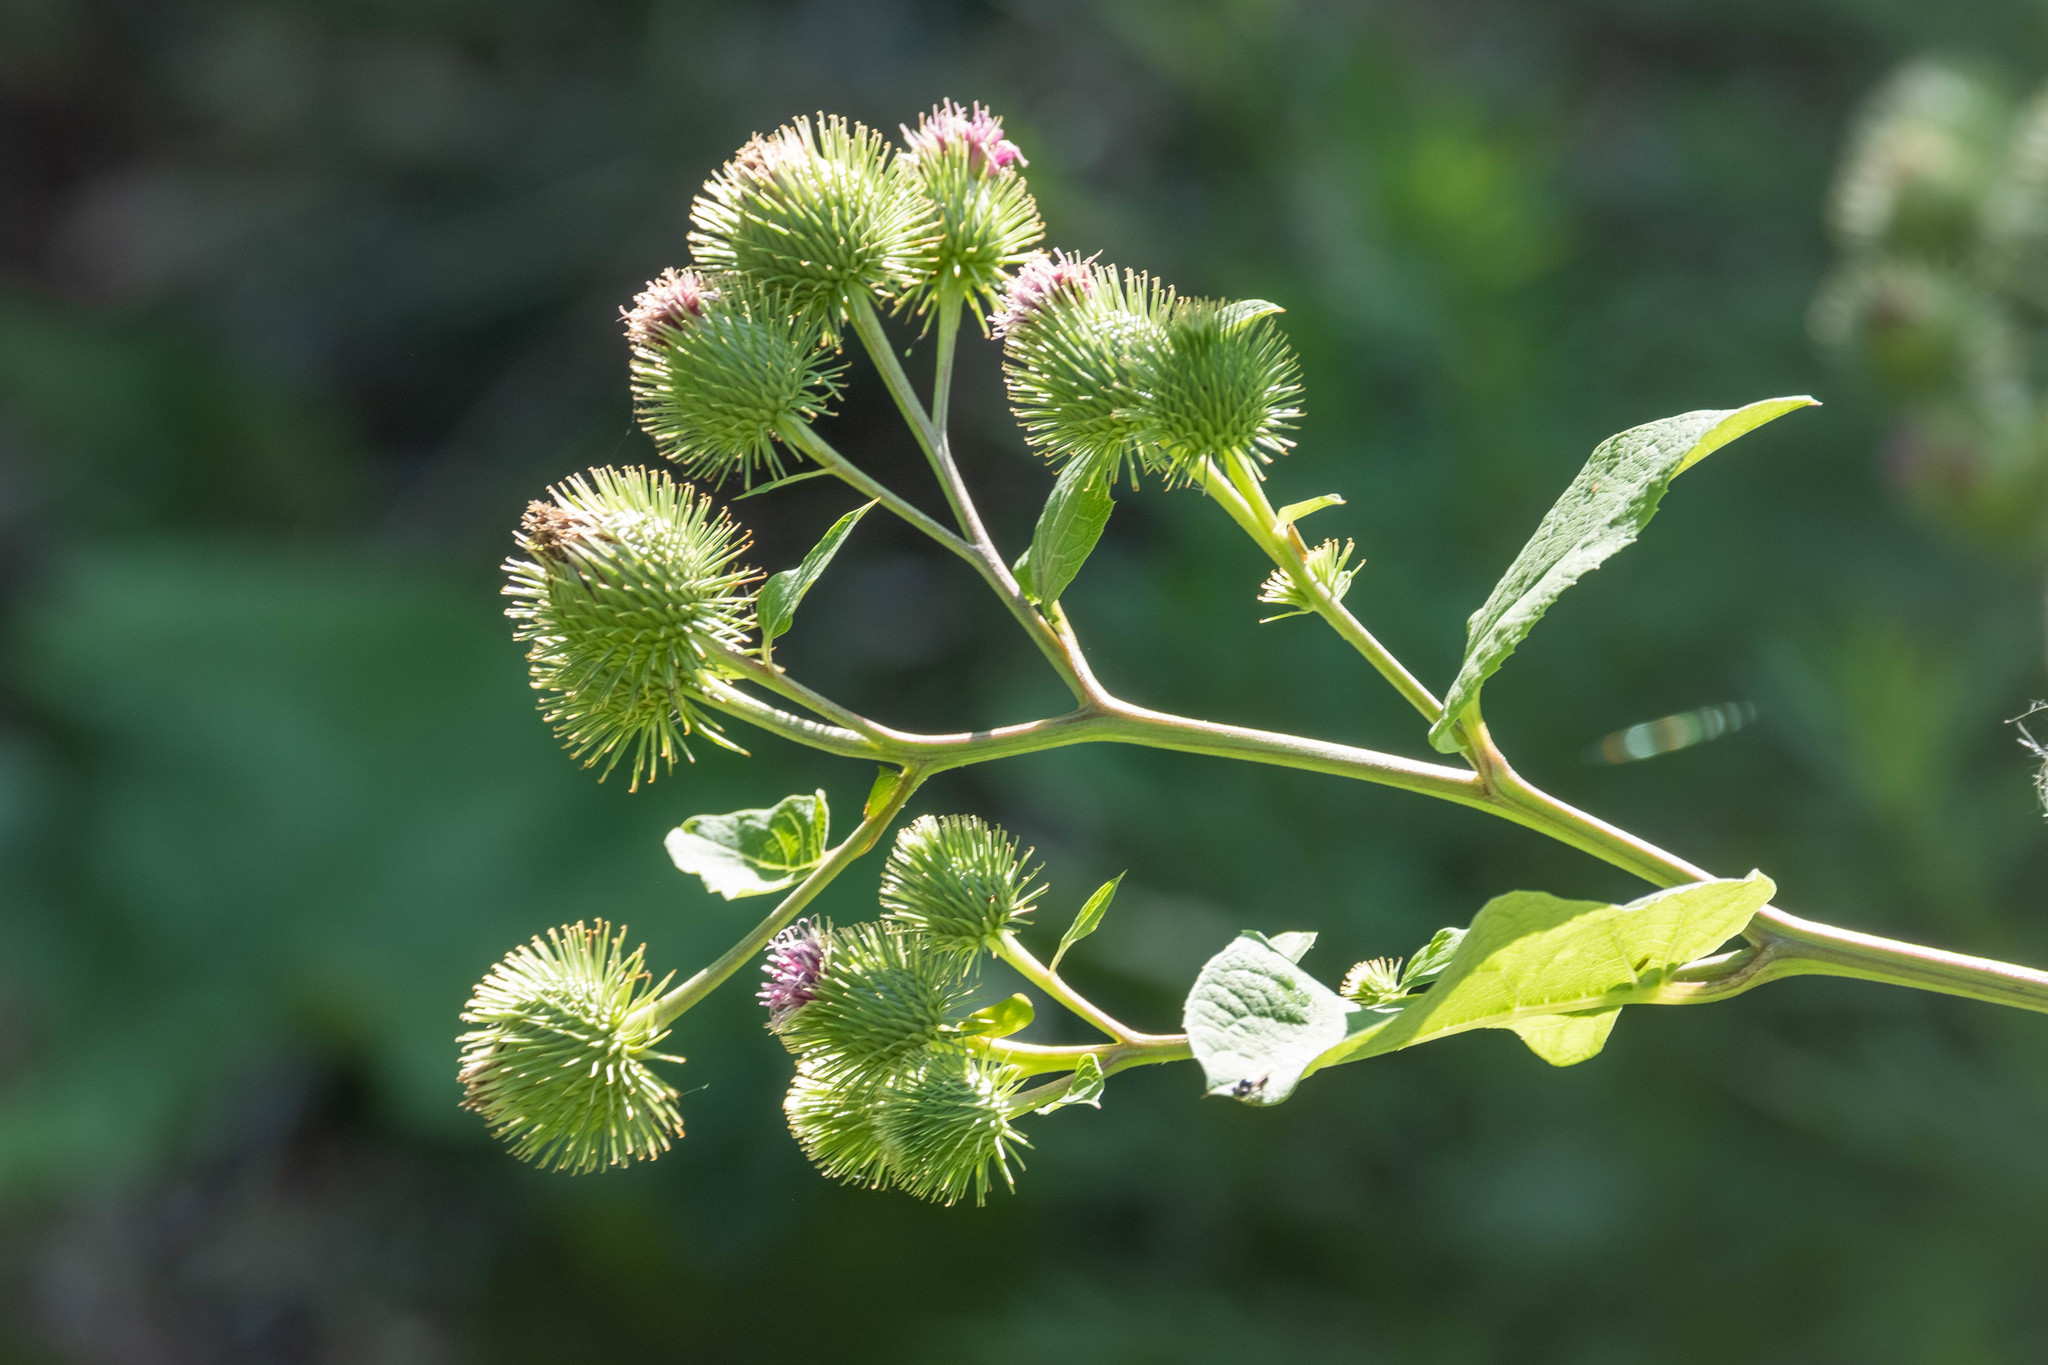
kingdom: Plantae
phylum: Tracheophyta
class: Magnoliopsida
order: Asterales
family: Asteraceae
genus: Arctium
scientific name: Arctium lappa
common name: Greater burdock
